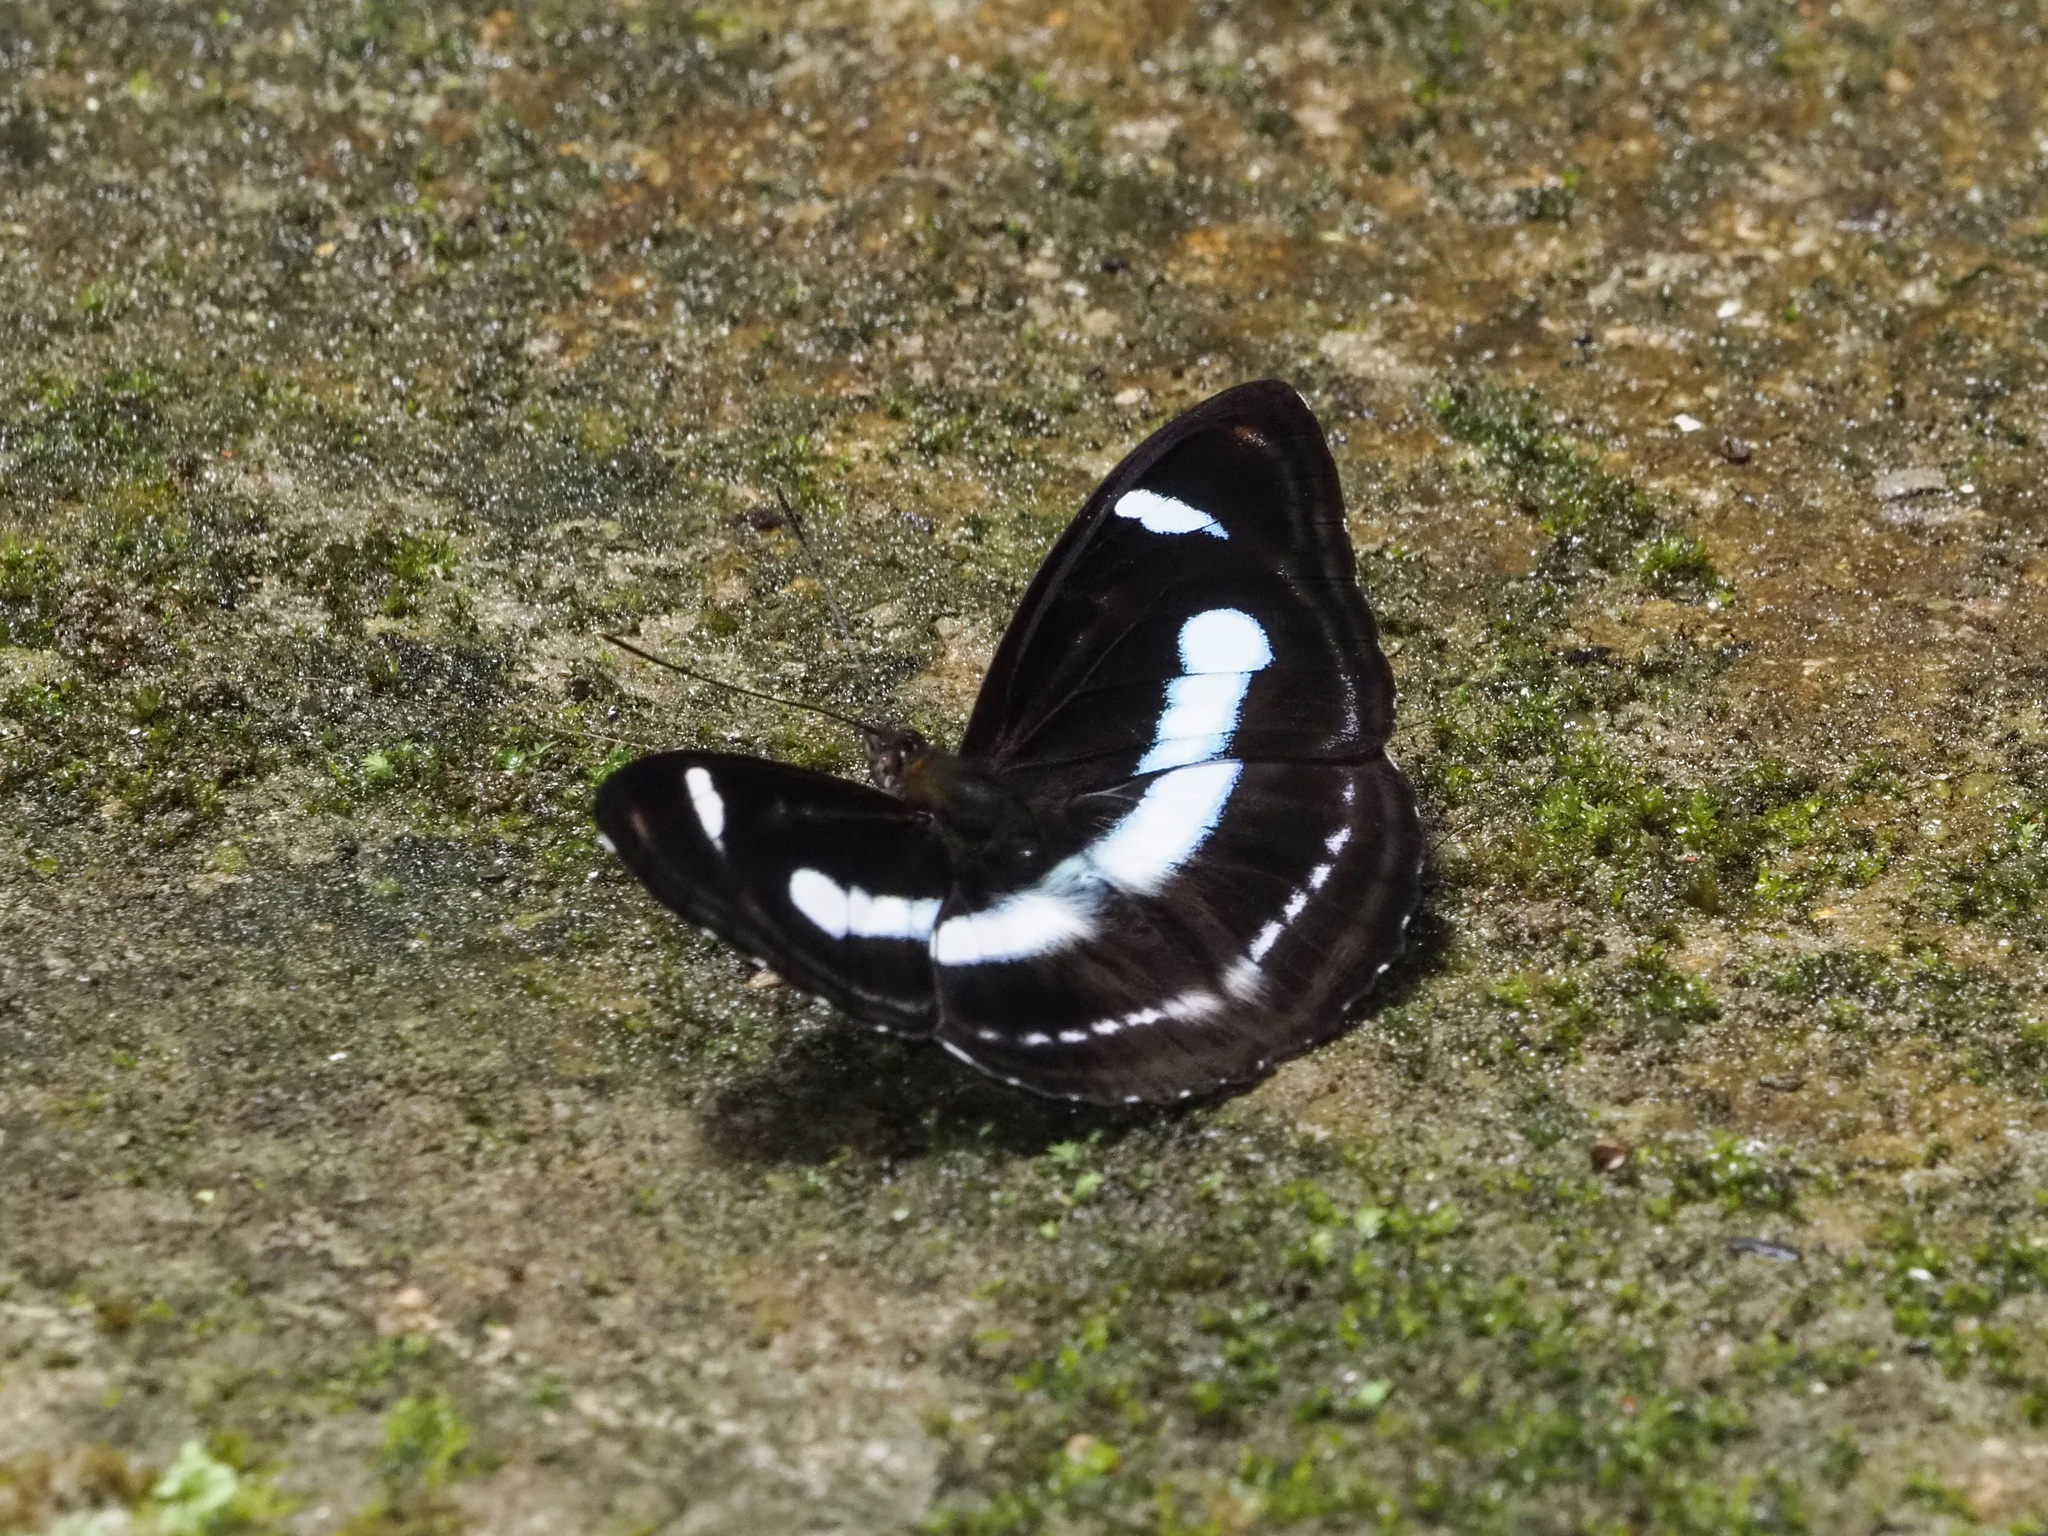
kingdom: Animalia
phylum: Arthropoda
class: Insecta
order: Lepidoptera
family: Nymphalidae
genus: Pantoporia
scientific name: Pantoporia cama
